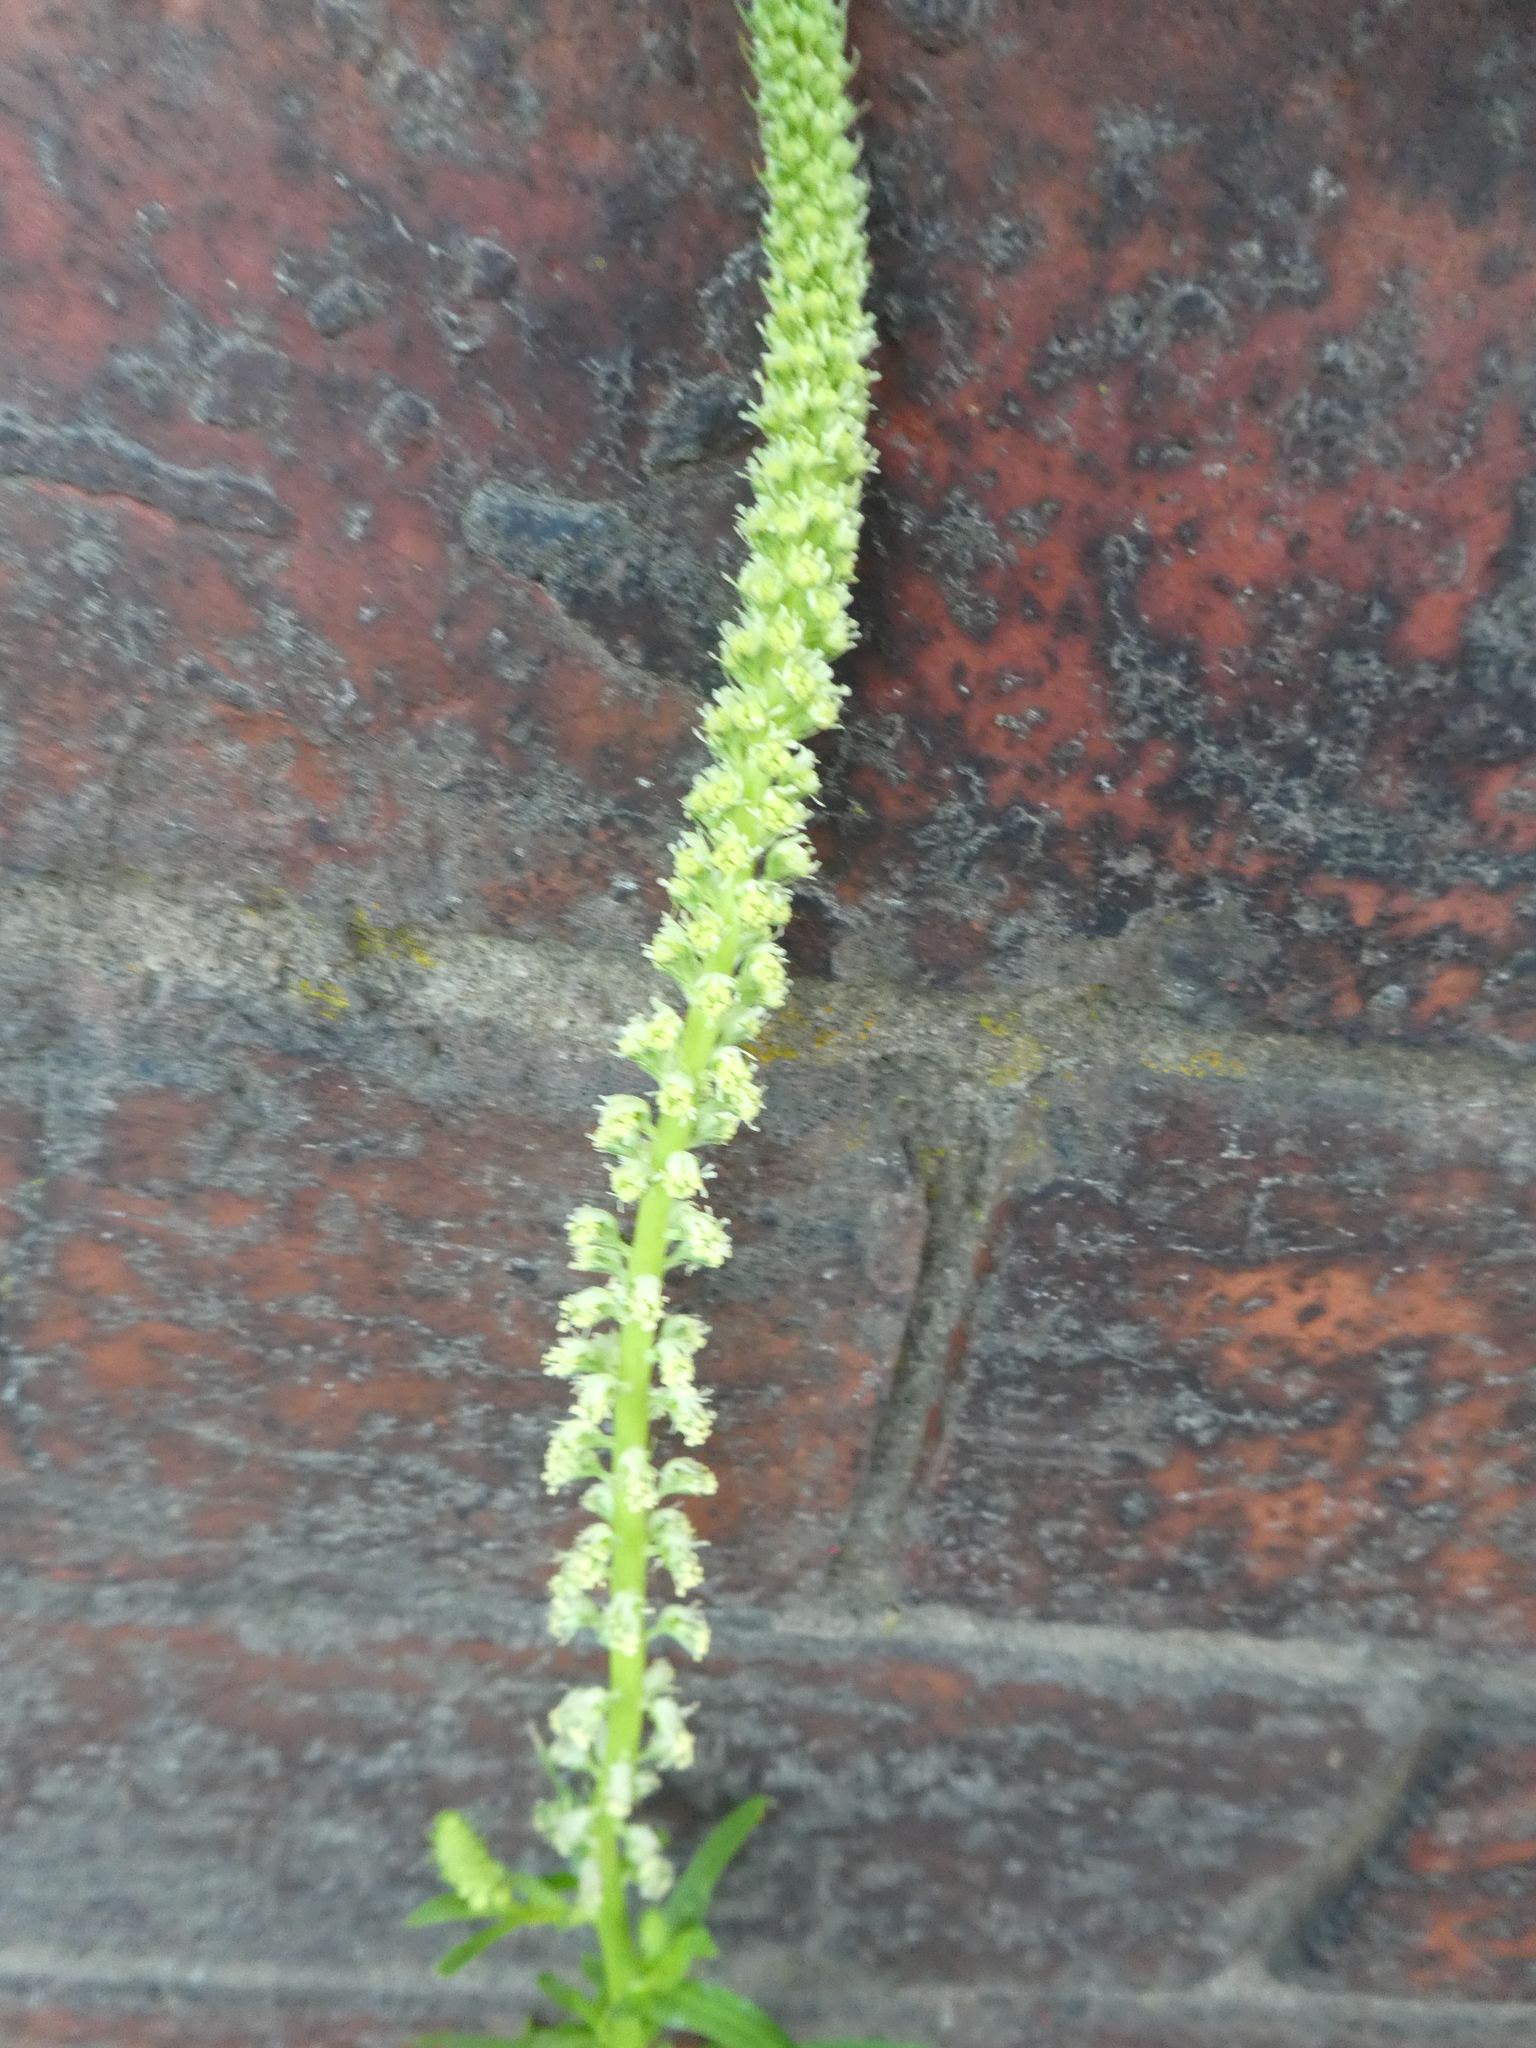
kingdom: Plantae
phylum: Tracheophyta
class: Magnoliopsida
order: Brassicales
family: Resedaceae
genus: Reseda
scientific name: Reseda luteola
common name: Weld
